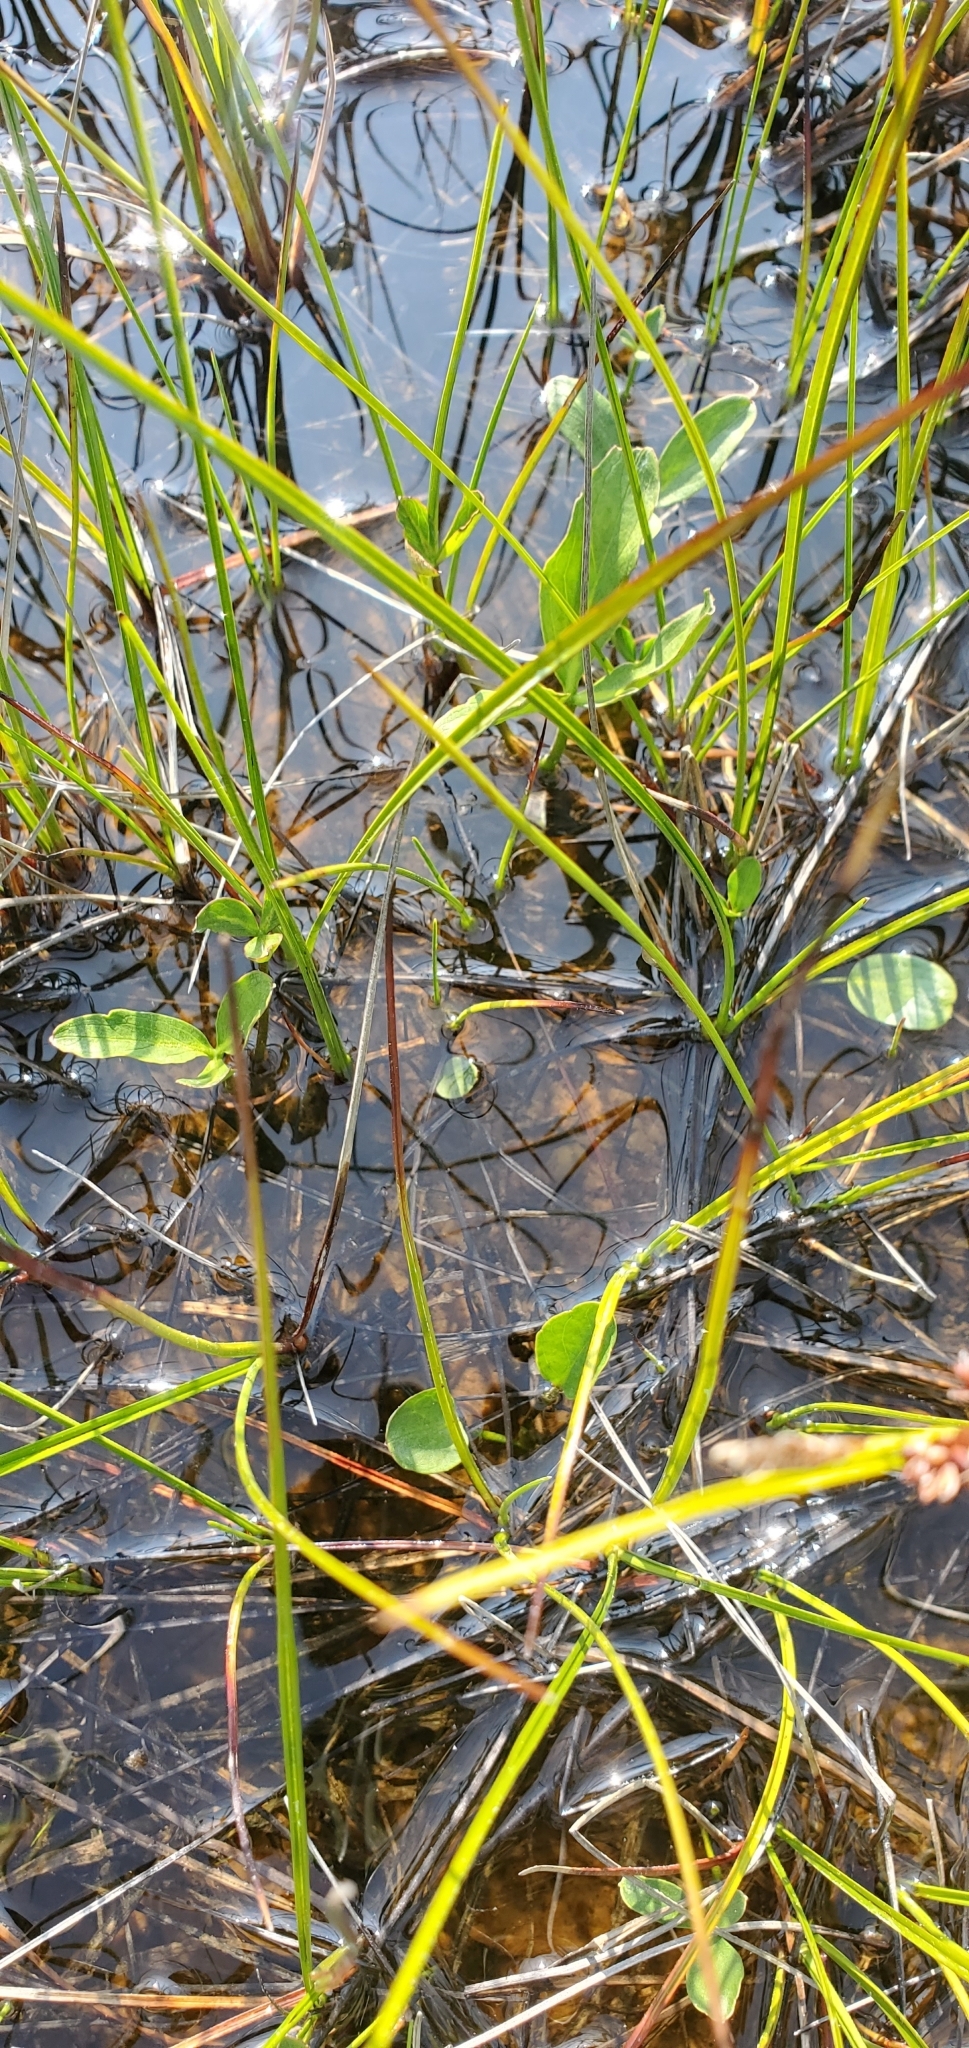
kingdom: Plantae
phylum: Tracheophyta
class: Magnoliopsida
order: Asterales
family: Menyanthaceae
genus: Menyanthes
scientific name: Menyanthes trifoliata
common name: Bogbean
